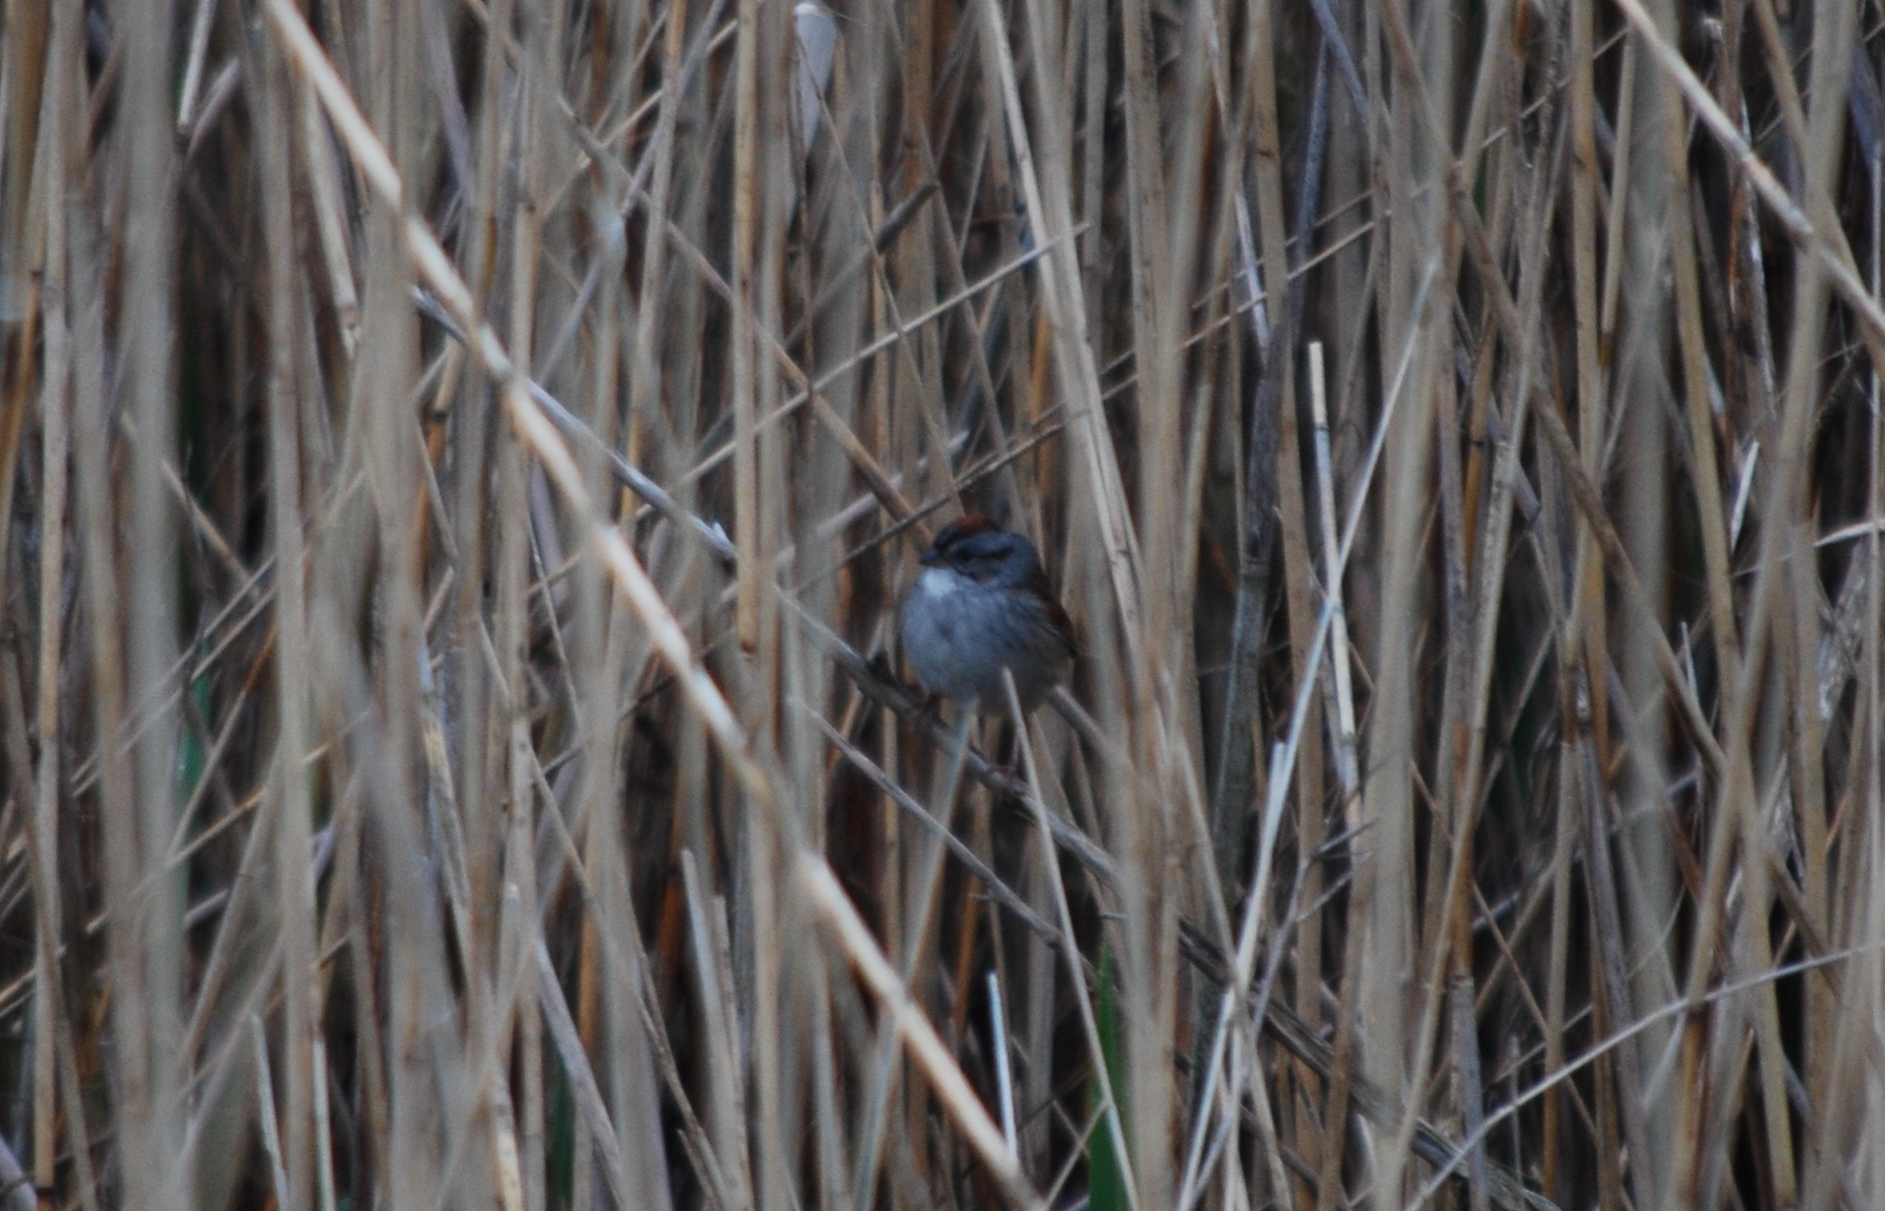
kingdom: Animalia
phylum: Chordata
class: Aves
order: Passeriformes
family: Passerellidae
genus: Melospiza
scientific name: Melospiza georgiana
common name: Swamp sparrow
